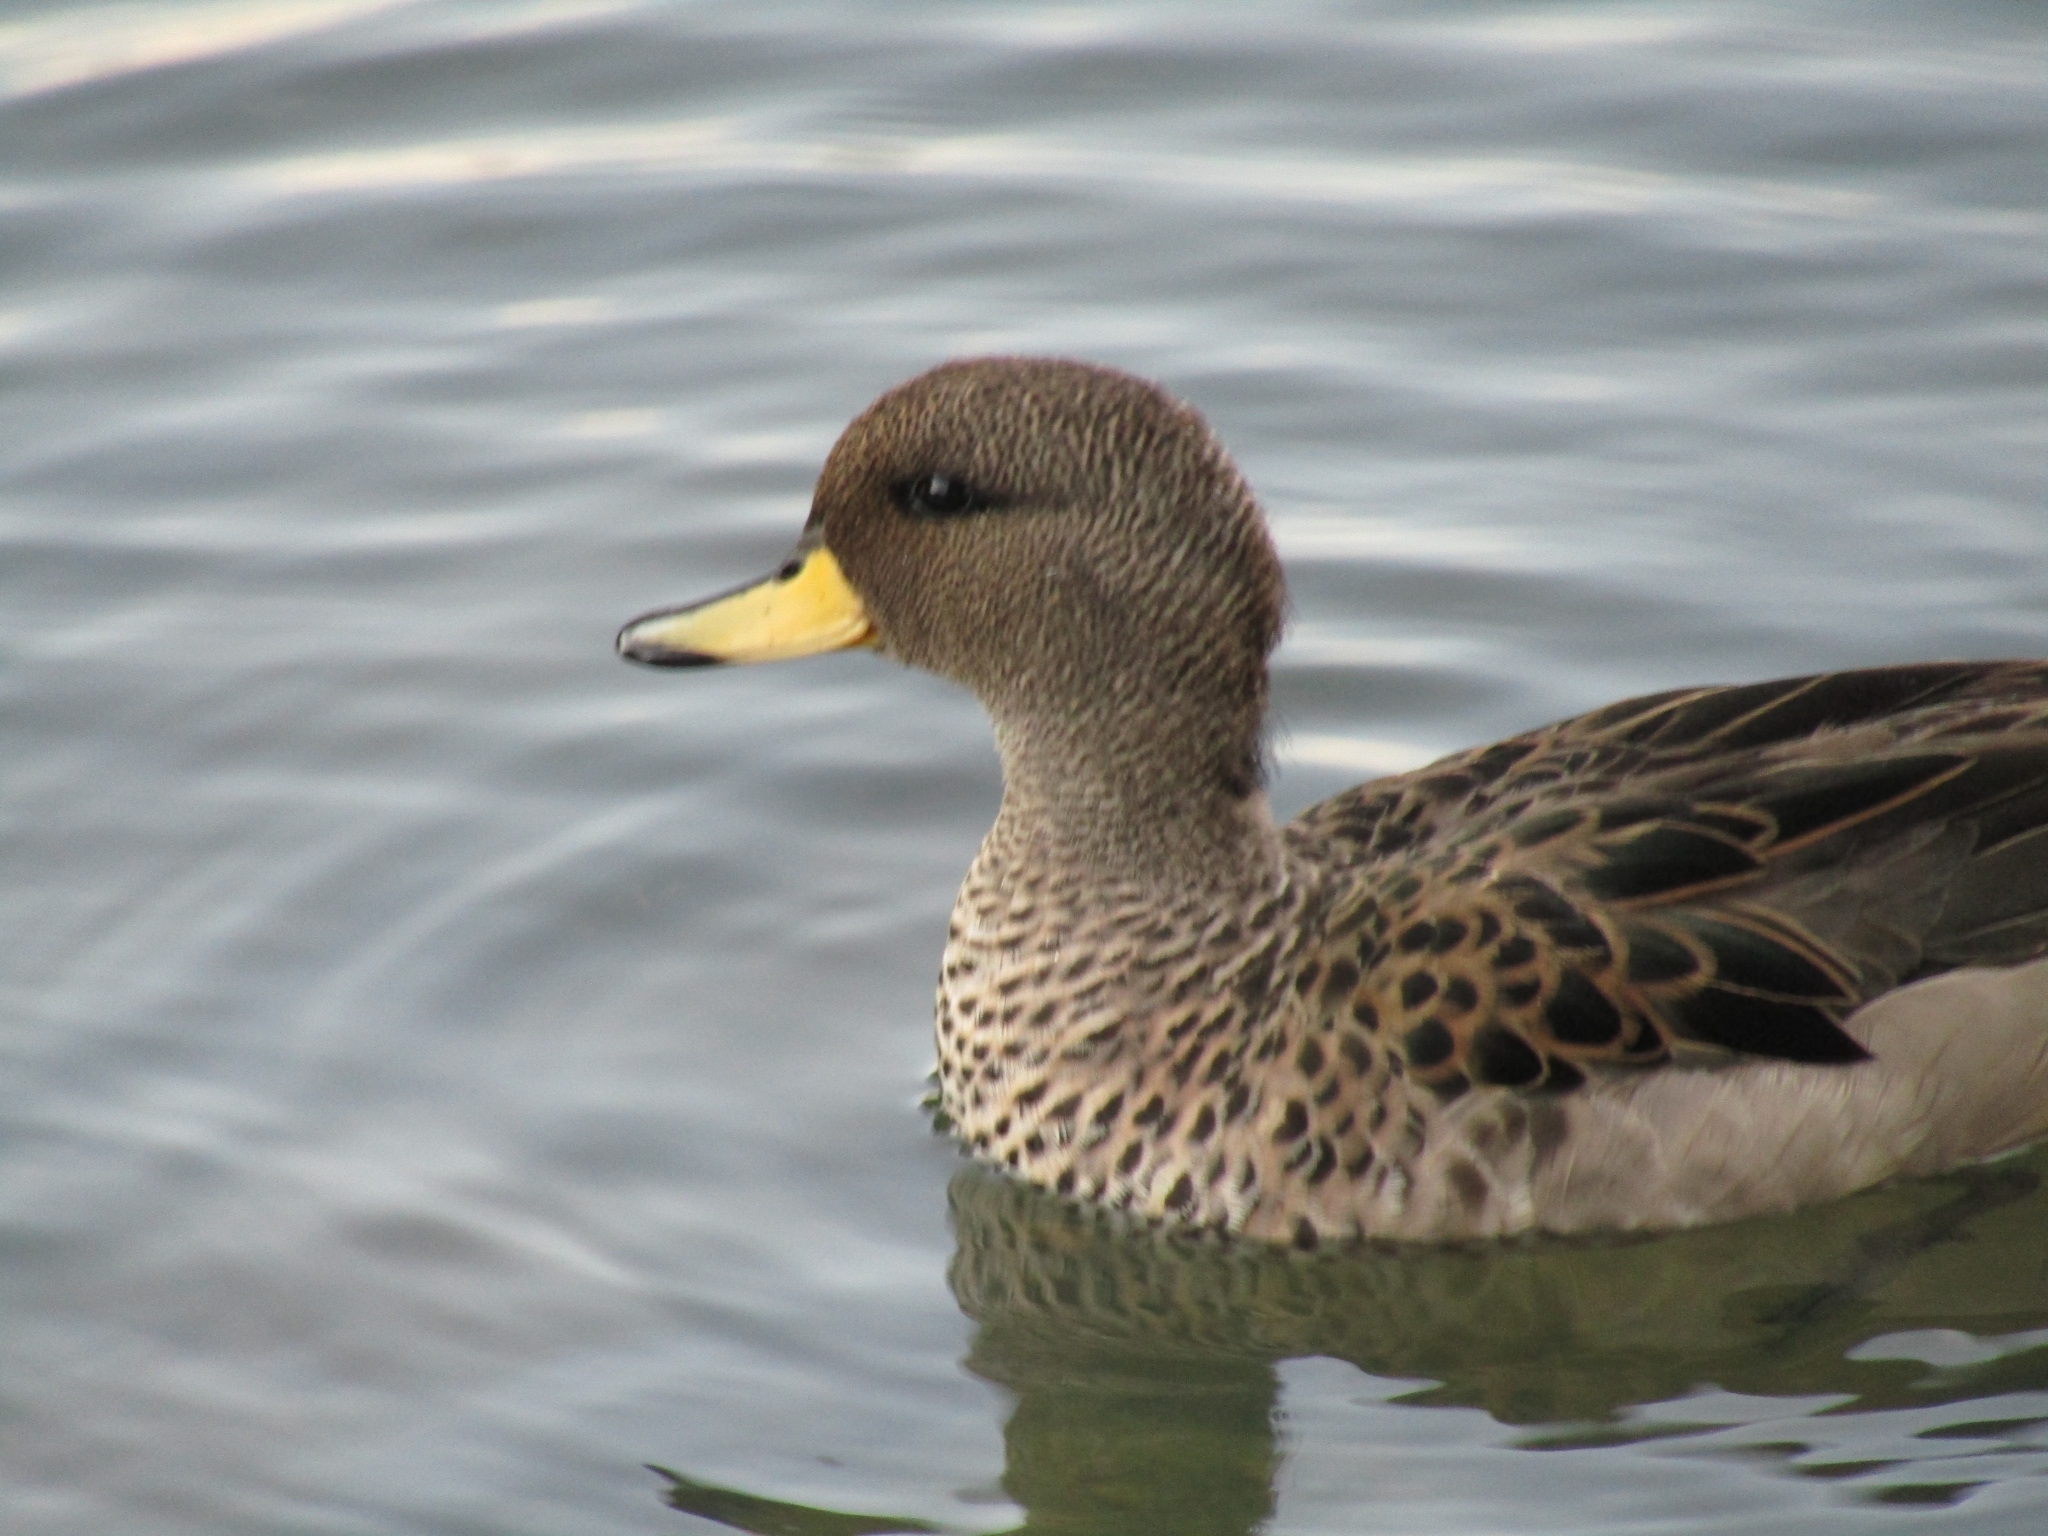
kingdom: Animalia
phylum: Chordata
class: Aves
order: Anseriformes
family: Anatidae
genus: Anas
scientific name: Anas flavirostris
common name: Yellow-billed teal
